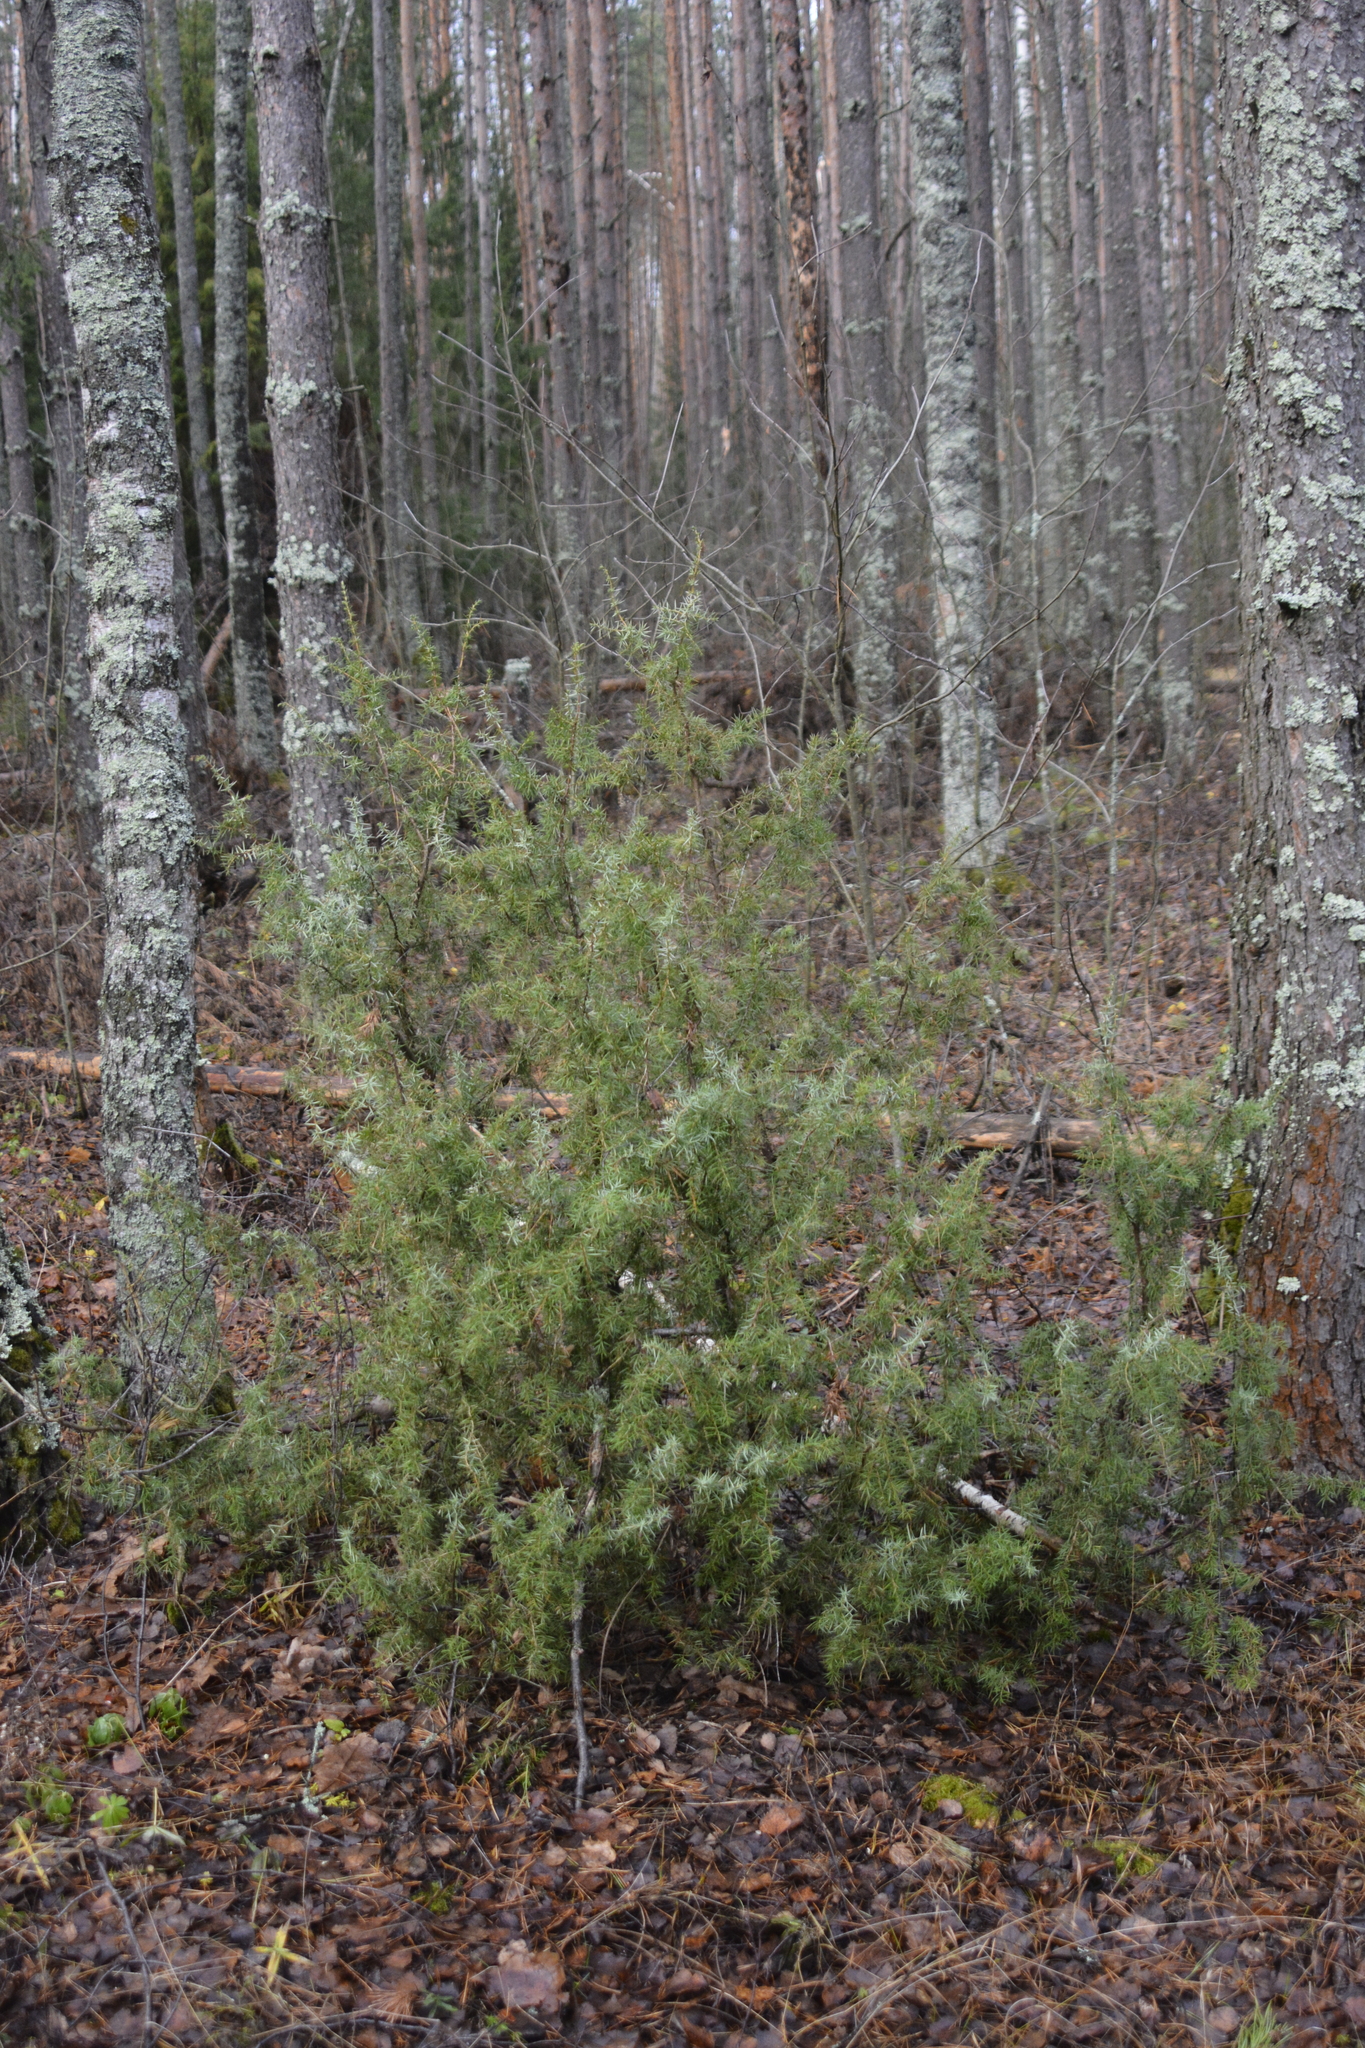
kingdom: Plantae
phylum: Tracheophyta
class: Pinopsida
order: Pinales
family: Cupressaceae
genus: Juniperus
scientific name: Juniperus communis
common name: Common juniper
